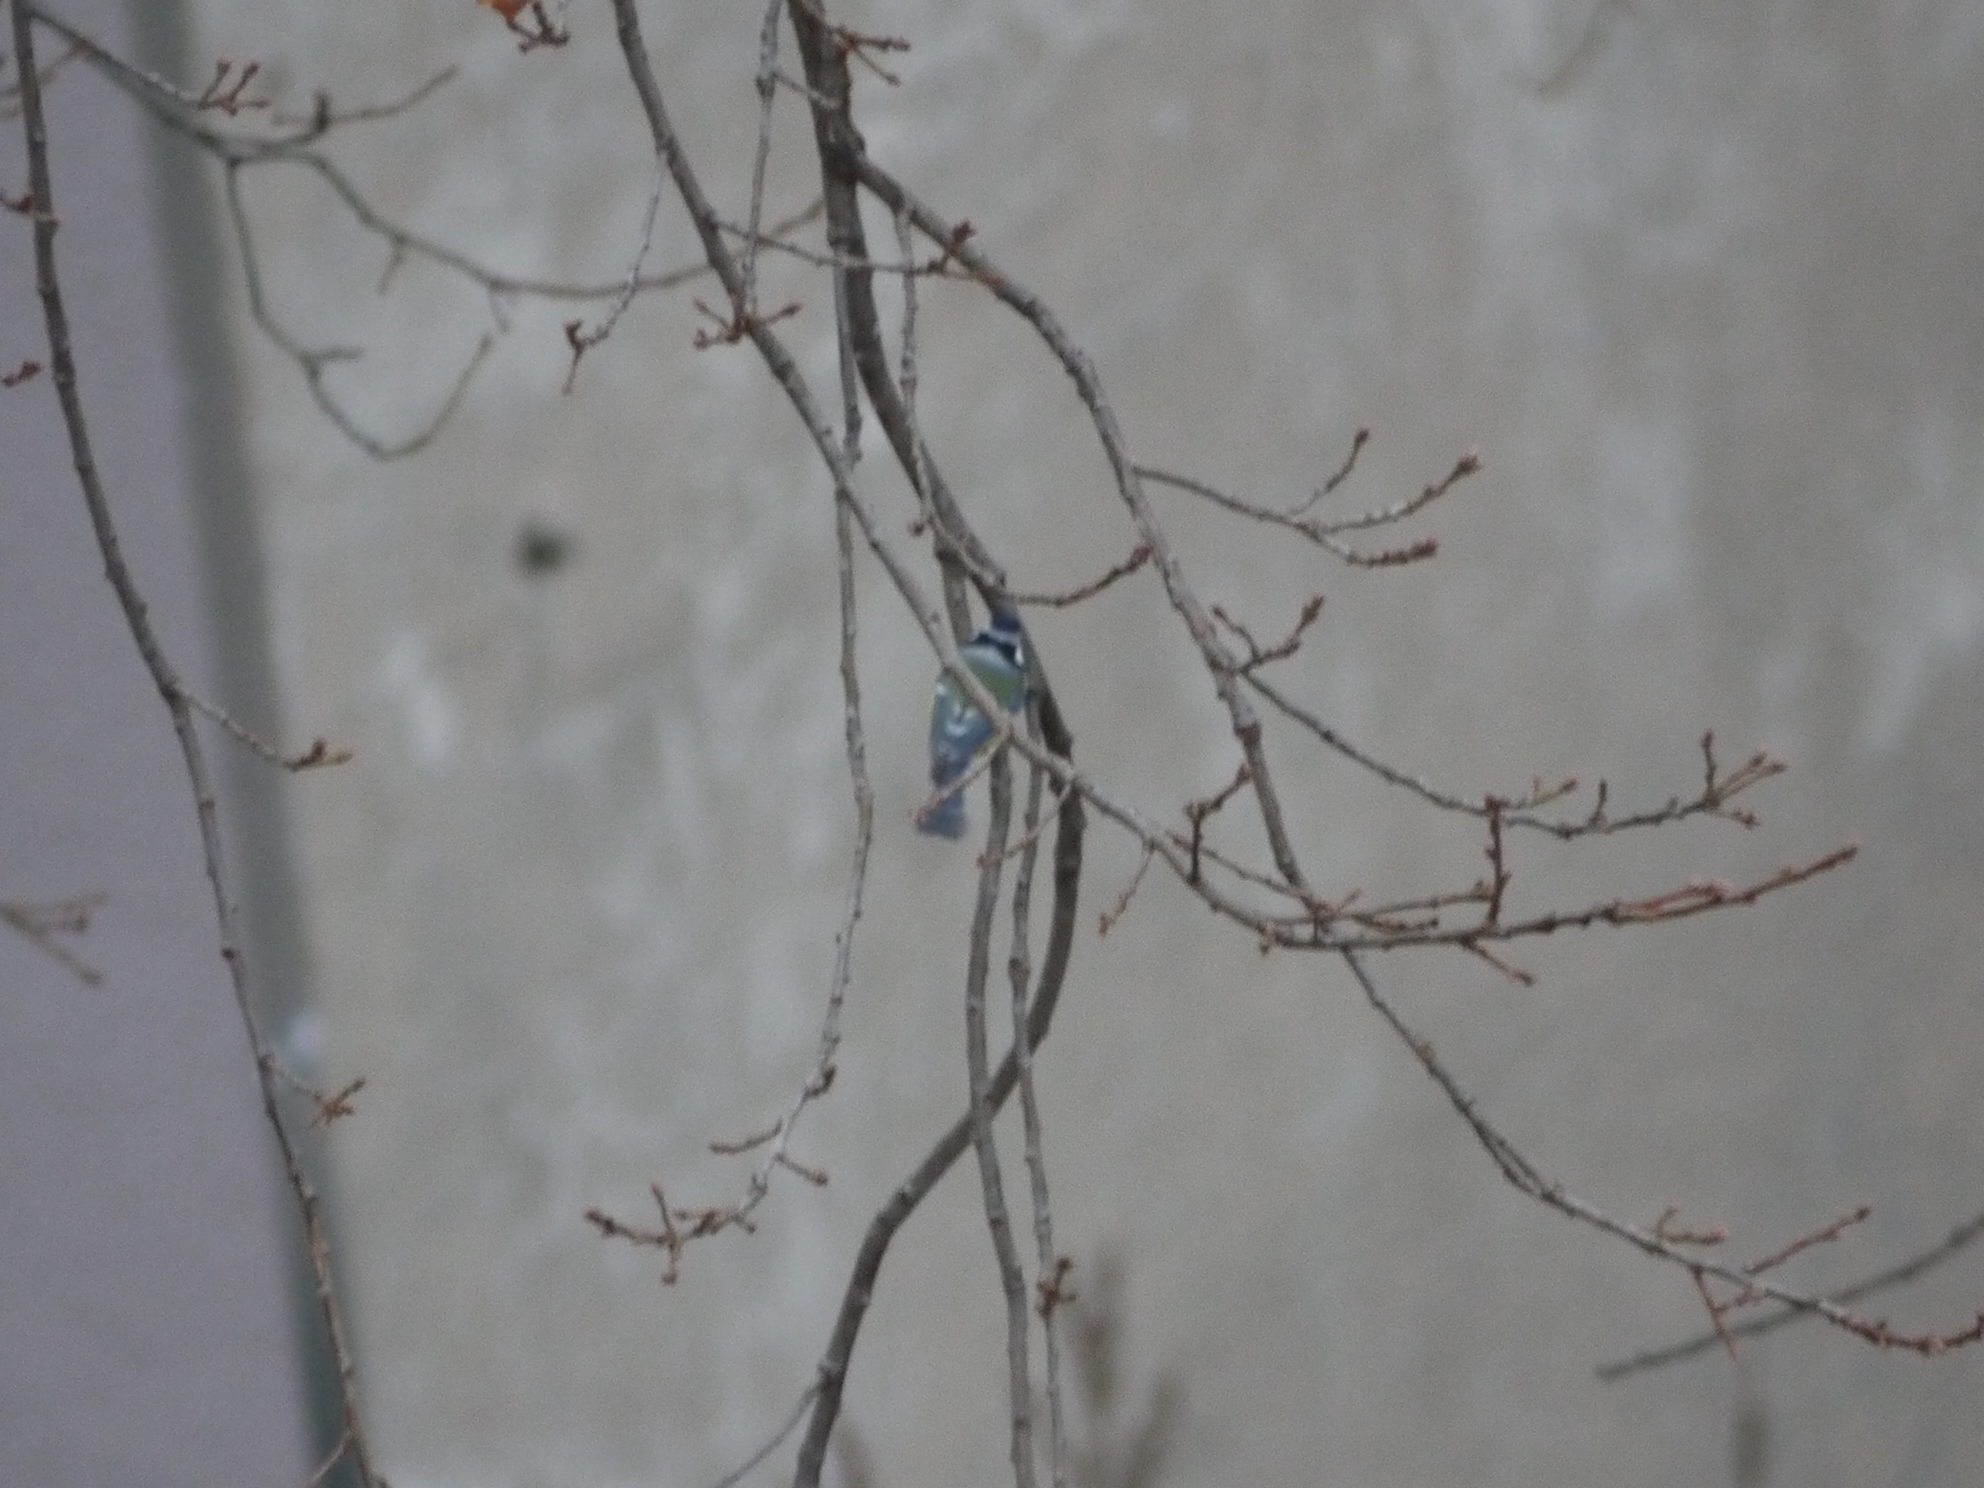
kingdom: Animalia
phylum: Chordata
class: Aves
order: Passeriformes
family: Paridae
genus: Cyanistes
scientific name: Cyanistes caeruleus
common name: Eurasian blue tit
